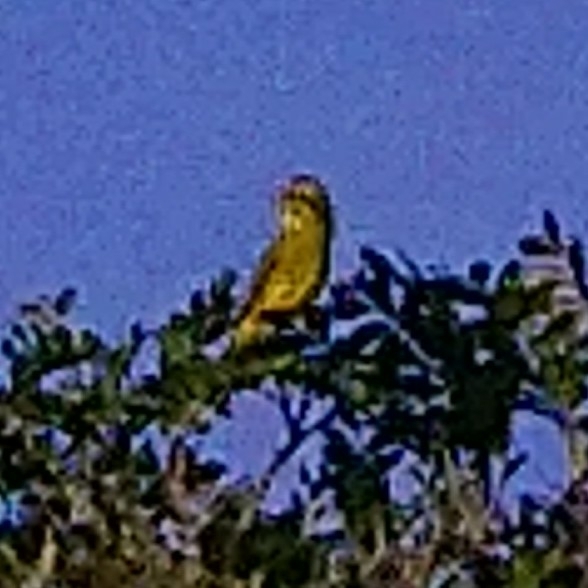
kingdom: Animalia
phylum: Chordata
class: Aves
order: Passeriformes
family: Fringillidae
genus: Crithagra
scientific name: Crithagra sulphurata
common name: Brimstone canary
